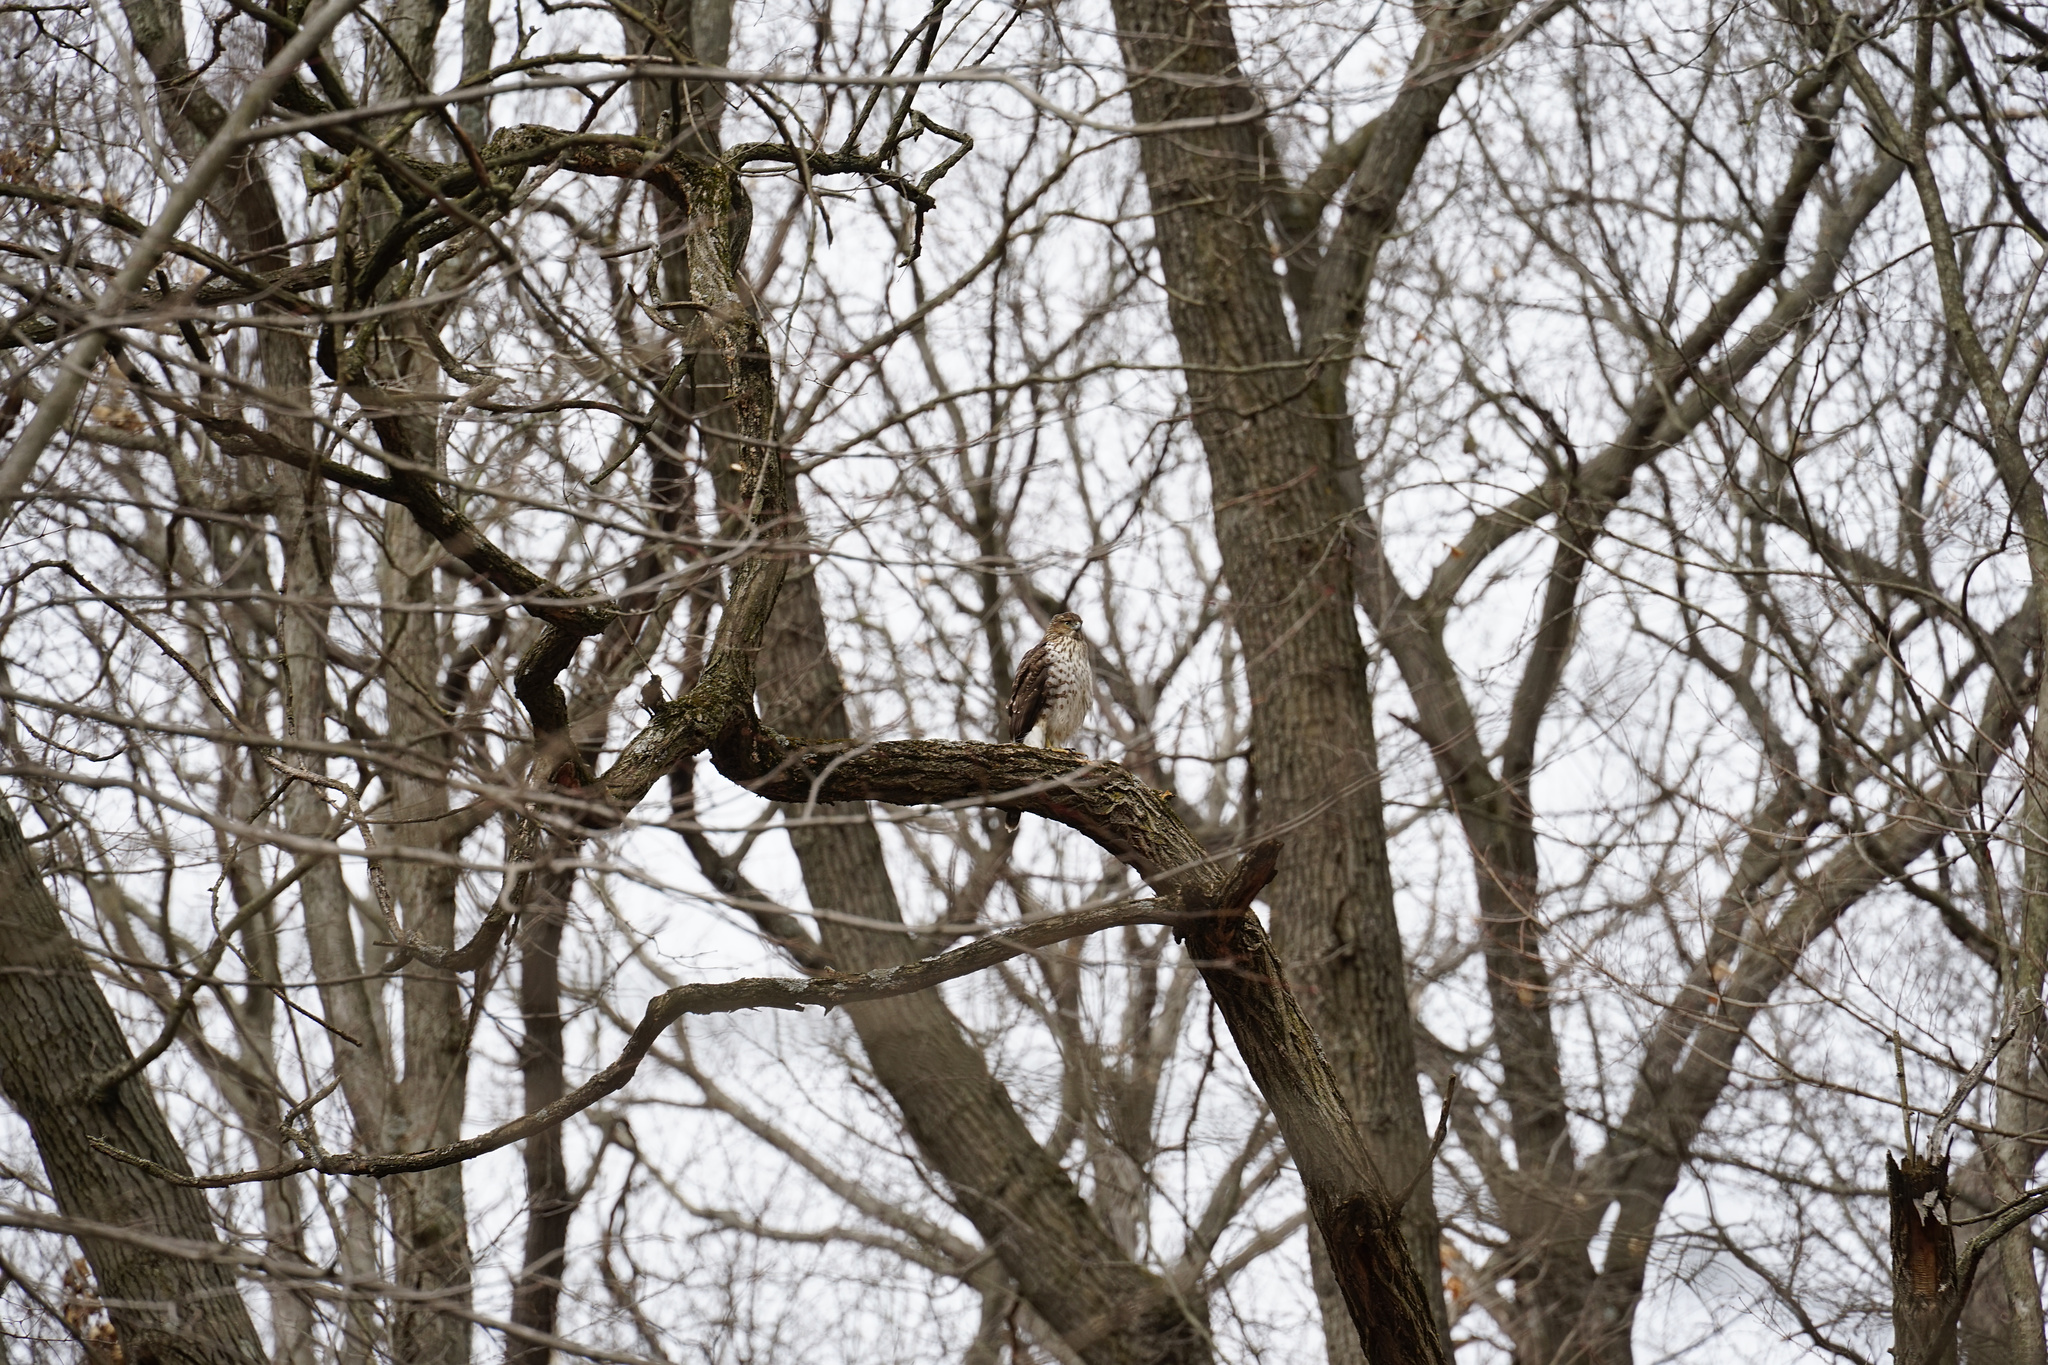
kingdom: Animalia
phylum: Chordata
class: Aves
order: Accipitriformes
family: Accipitridae
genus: Accipiter
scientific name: Accipiter cooperii
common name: Cooper's hawk
